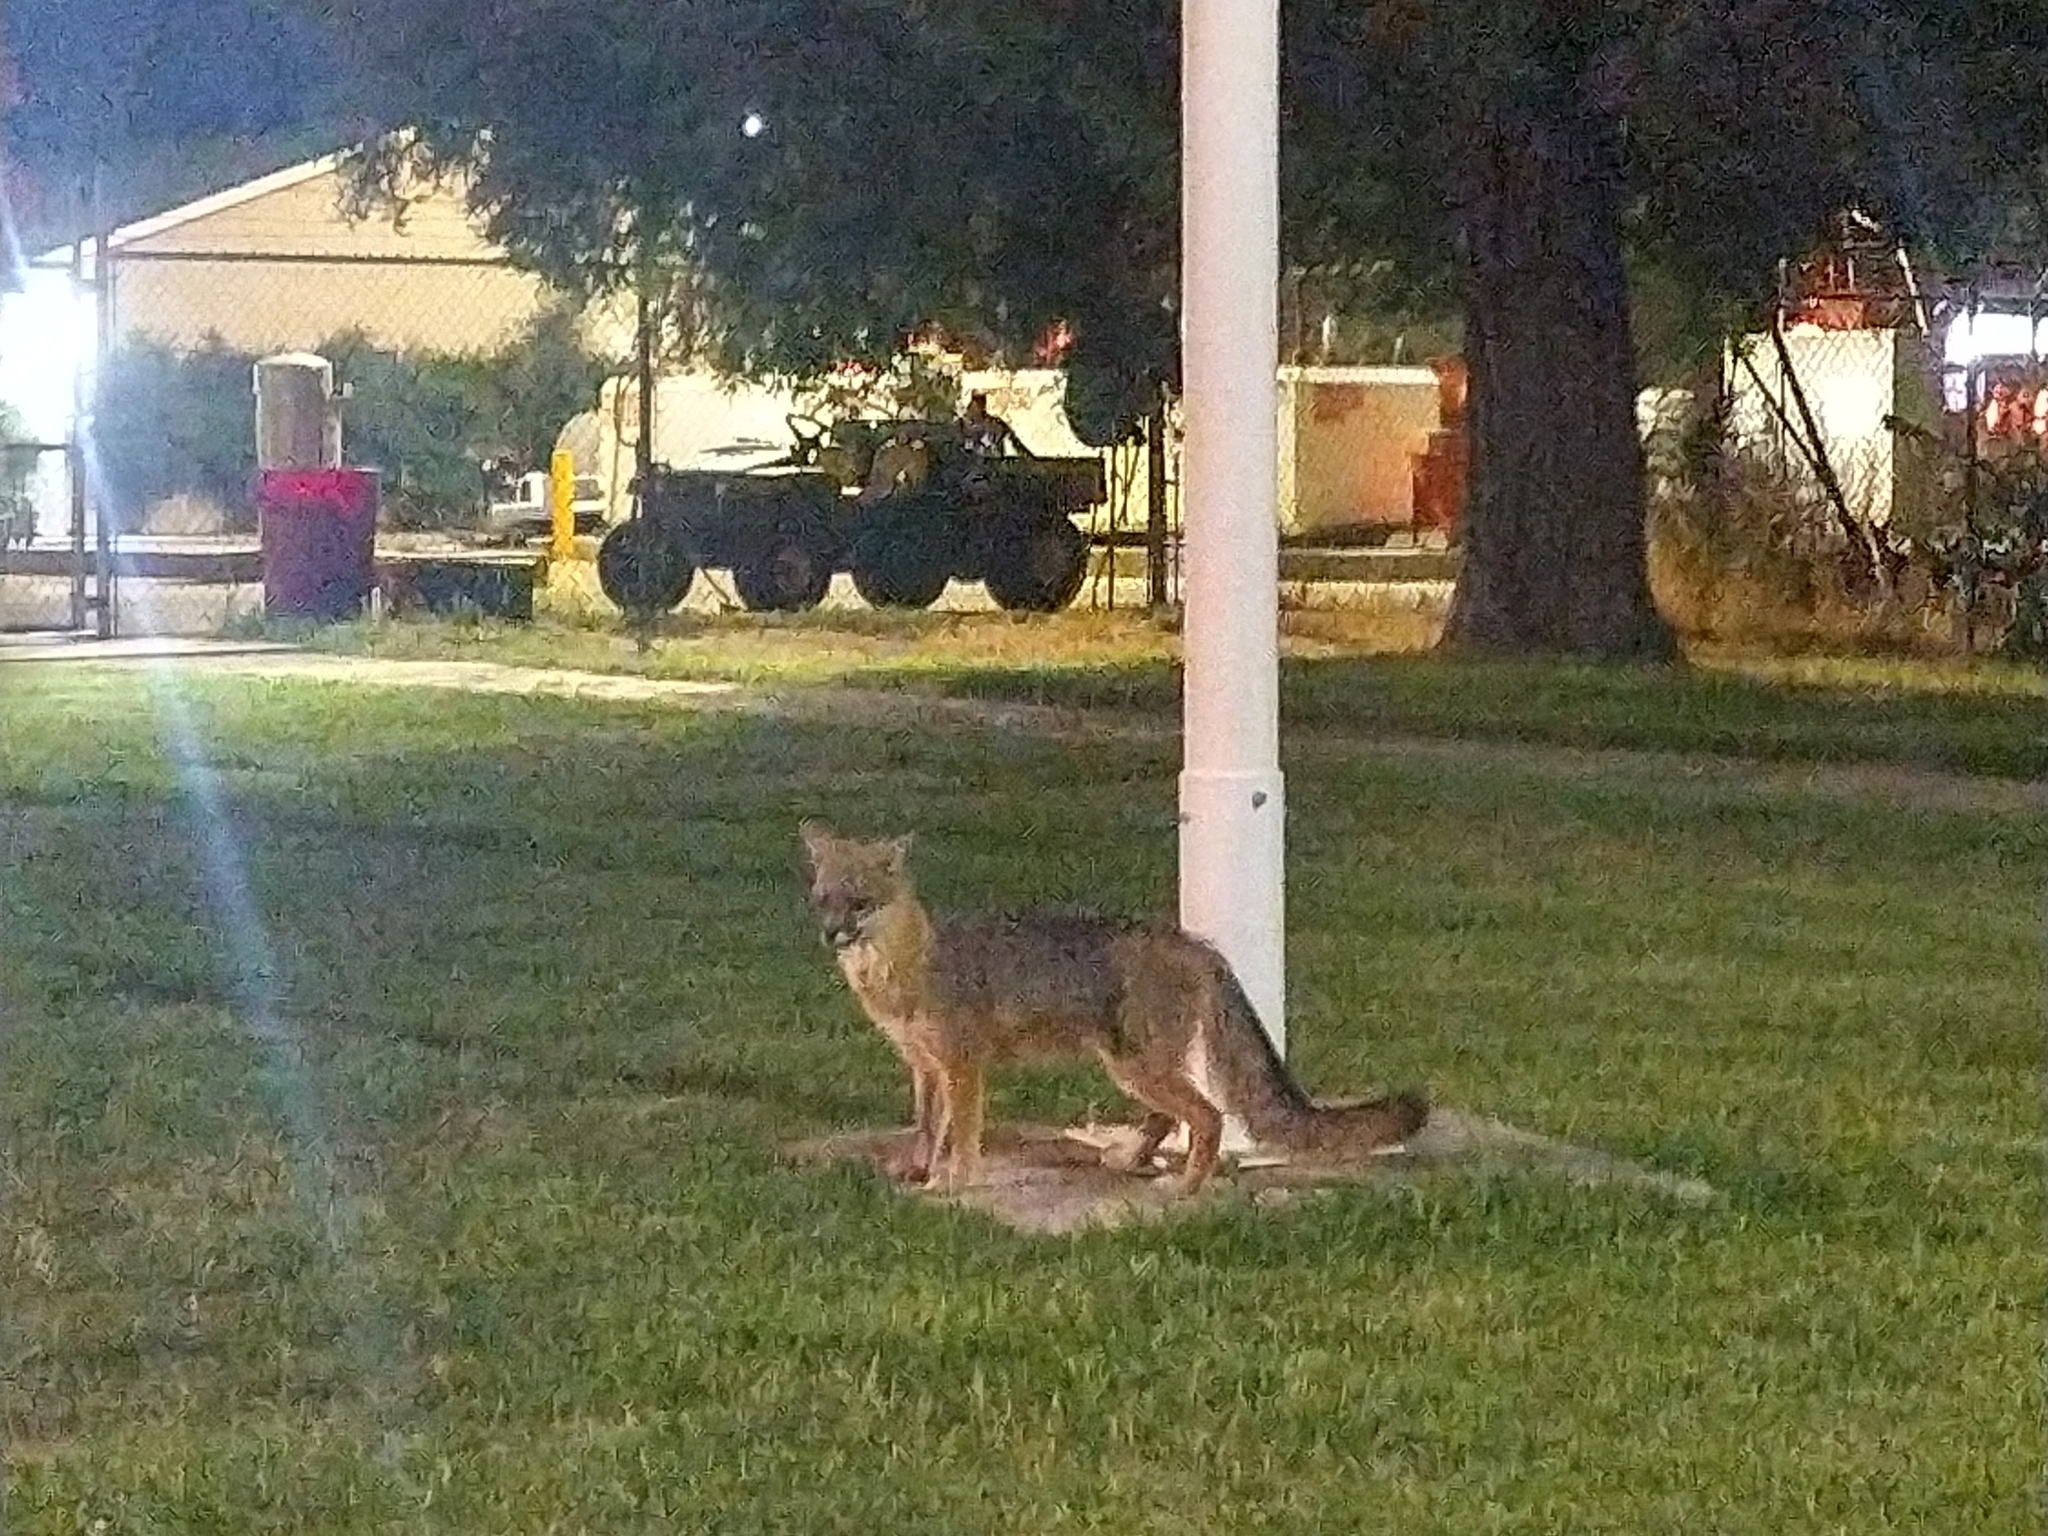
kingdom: Animalia
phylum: Chordata
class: Mammalia
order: Carnivora
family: Canidae
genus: Urocyon
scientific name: Urocyon cinereoargenteus
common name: Gray fox
